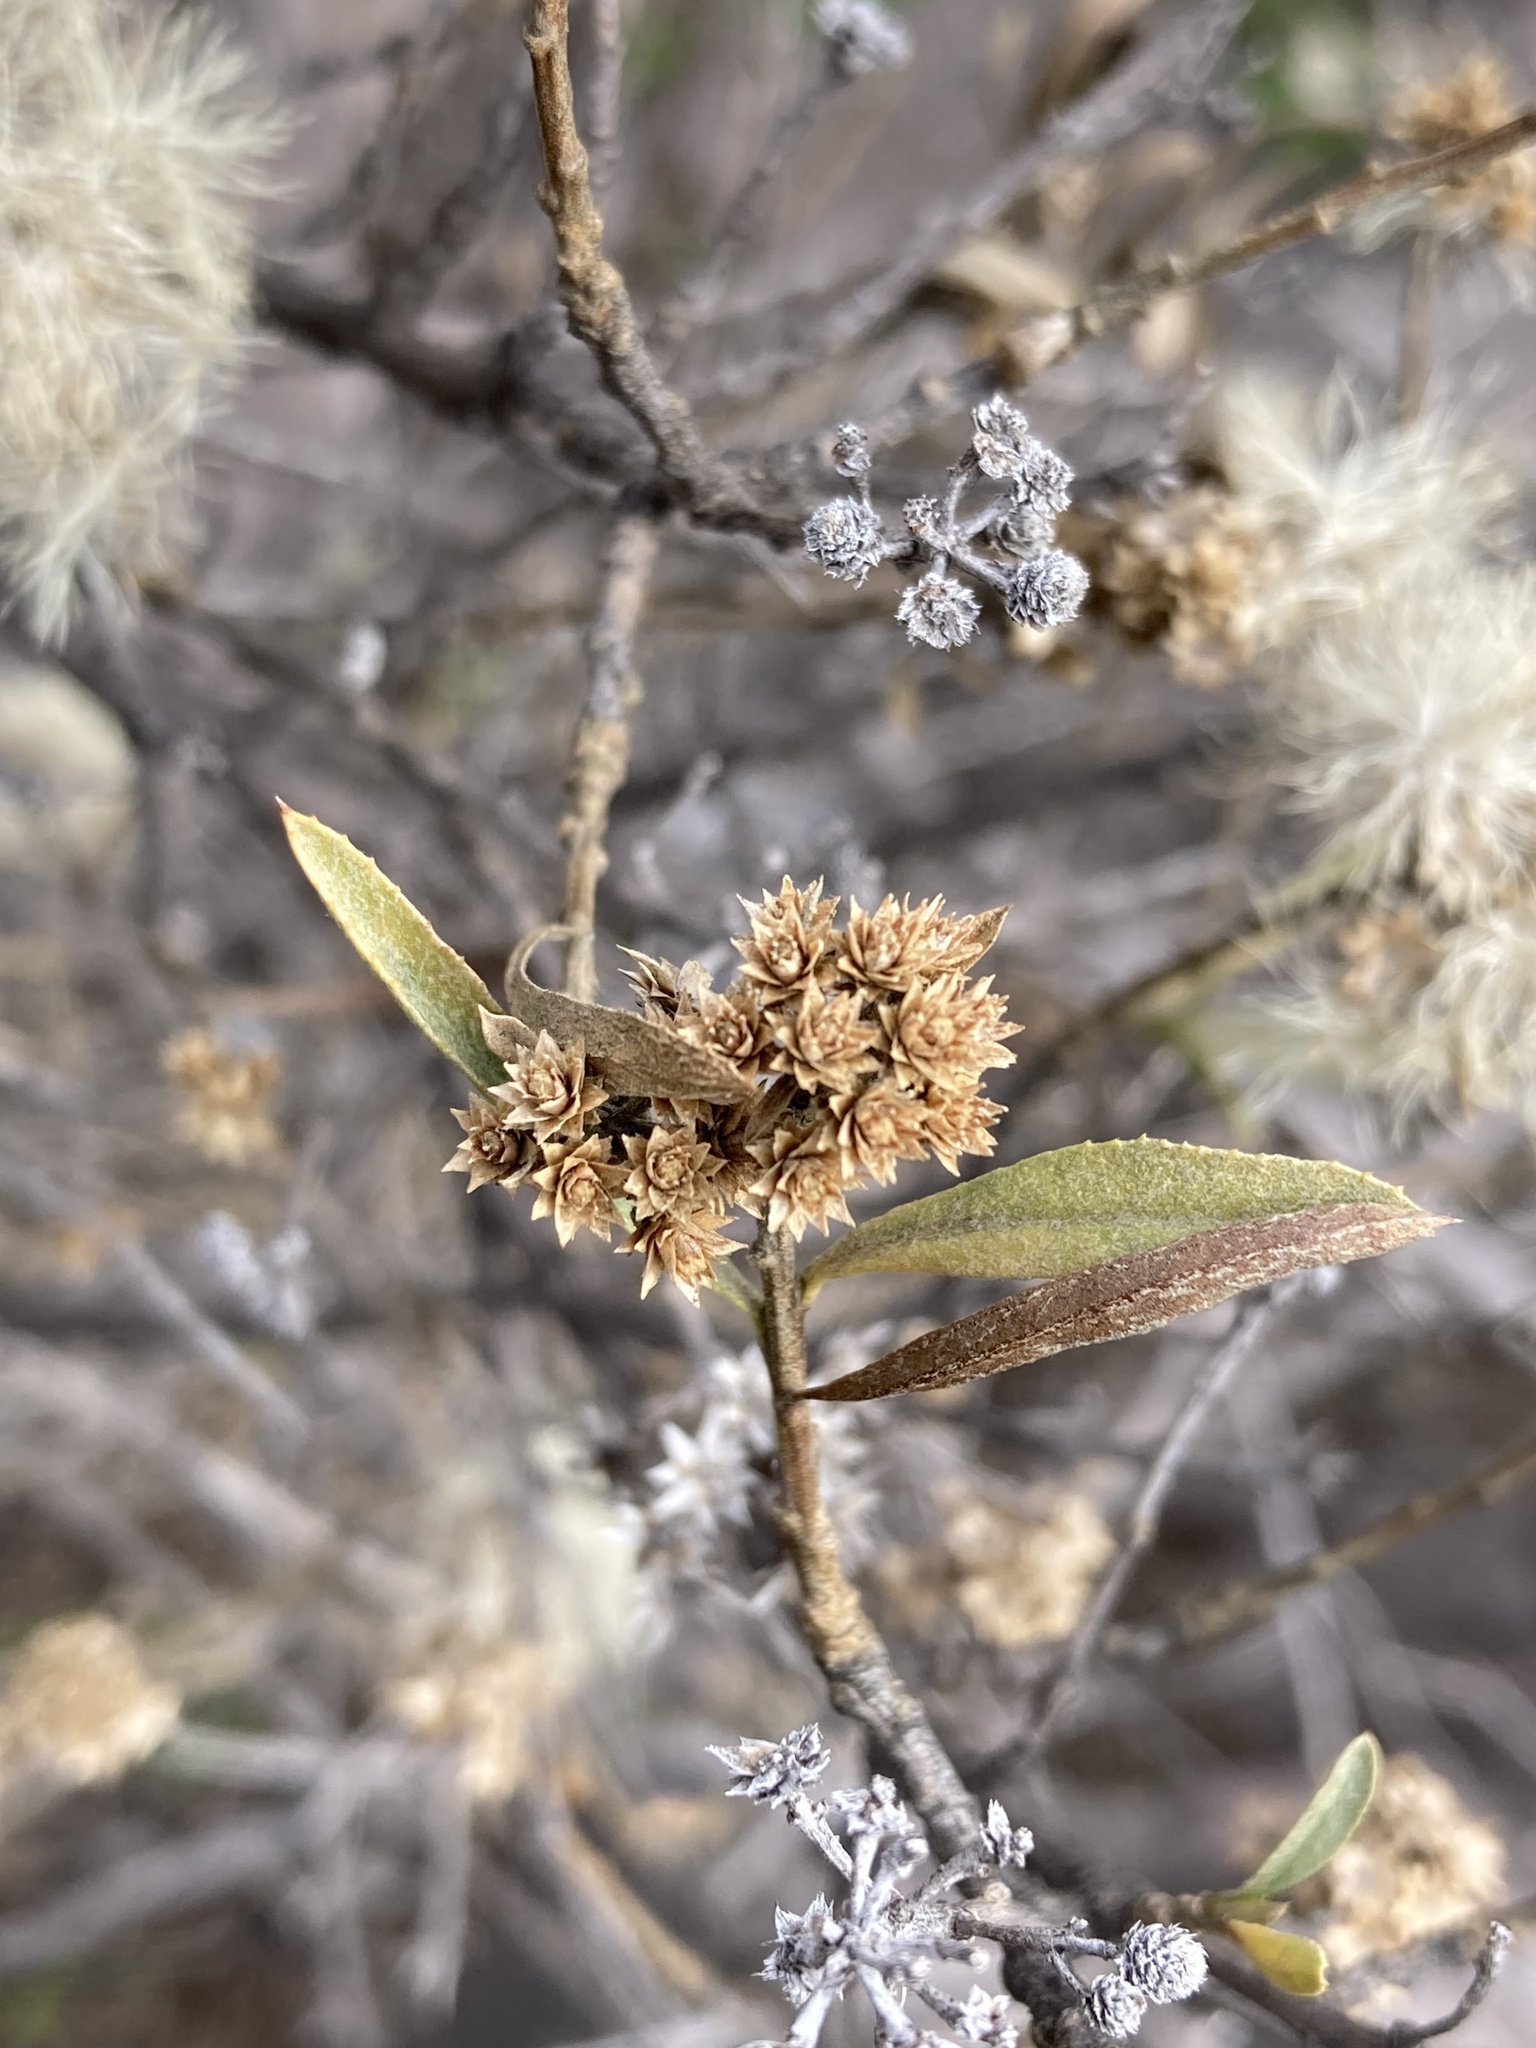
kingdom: Plantae
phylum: Tracheophyta
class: Magnoliopsida
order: Asterales
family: Asteraceae
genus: Proustia
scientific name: Proustia cuneifolia
